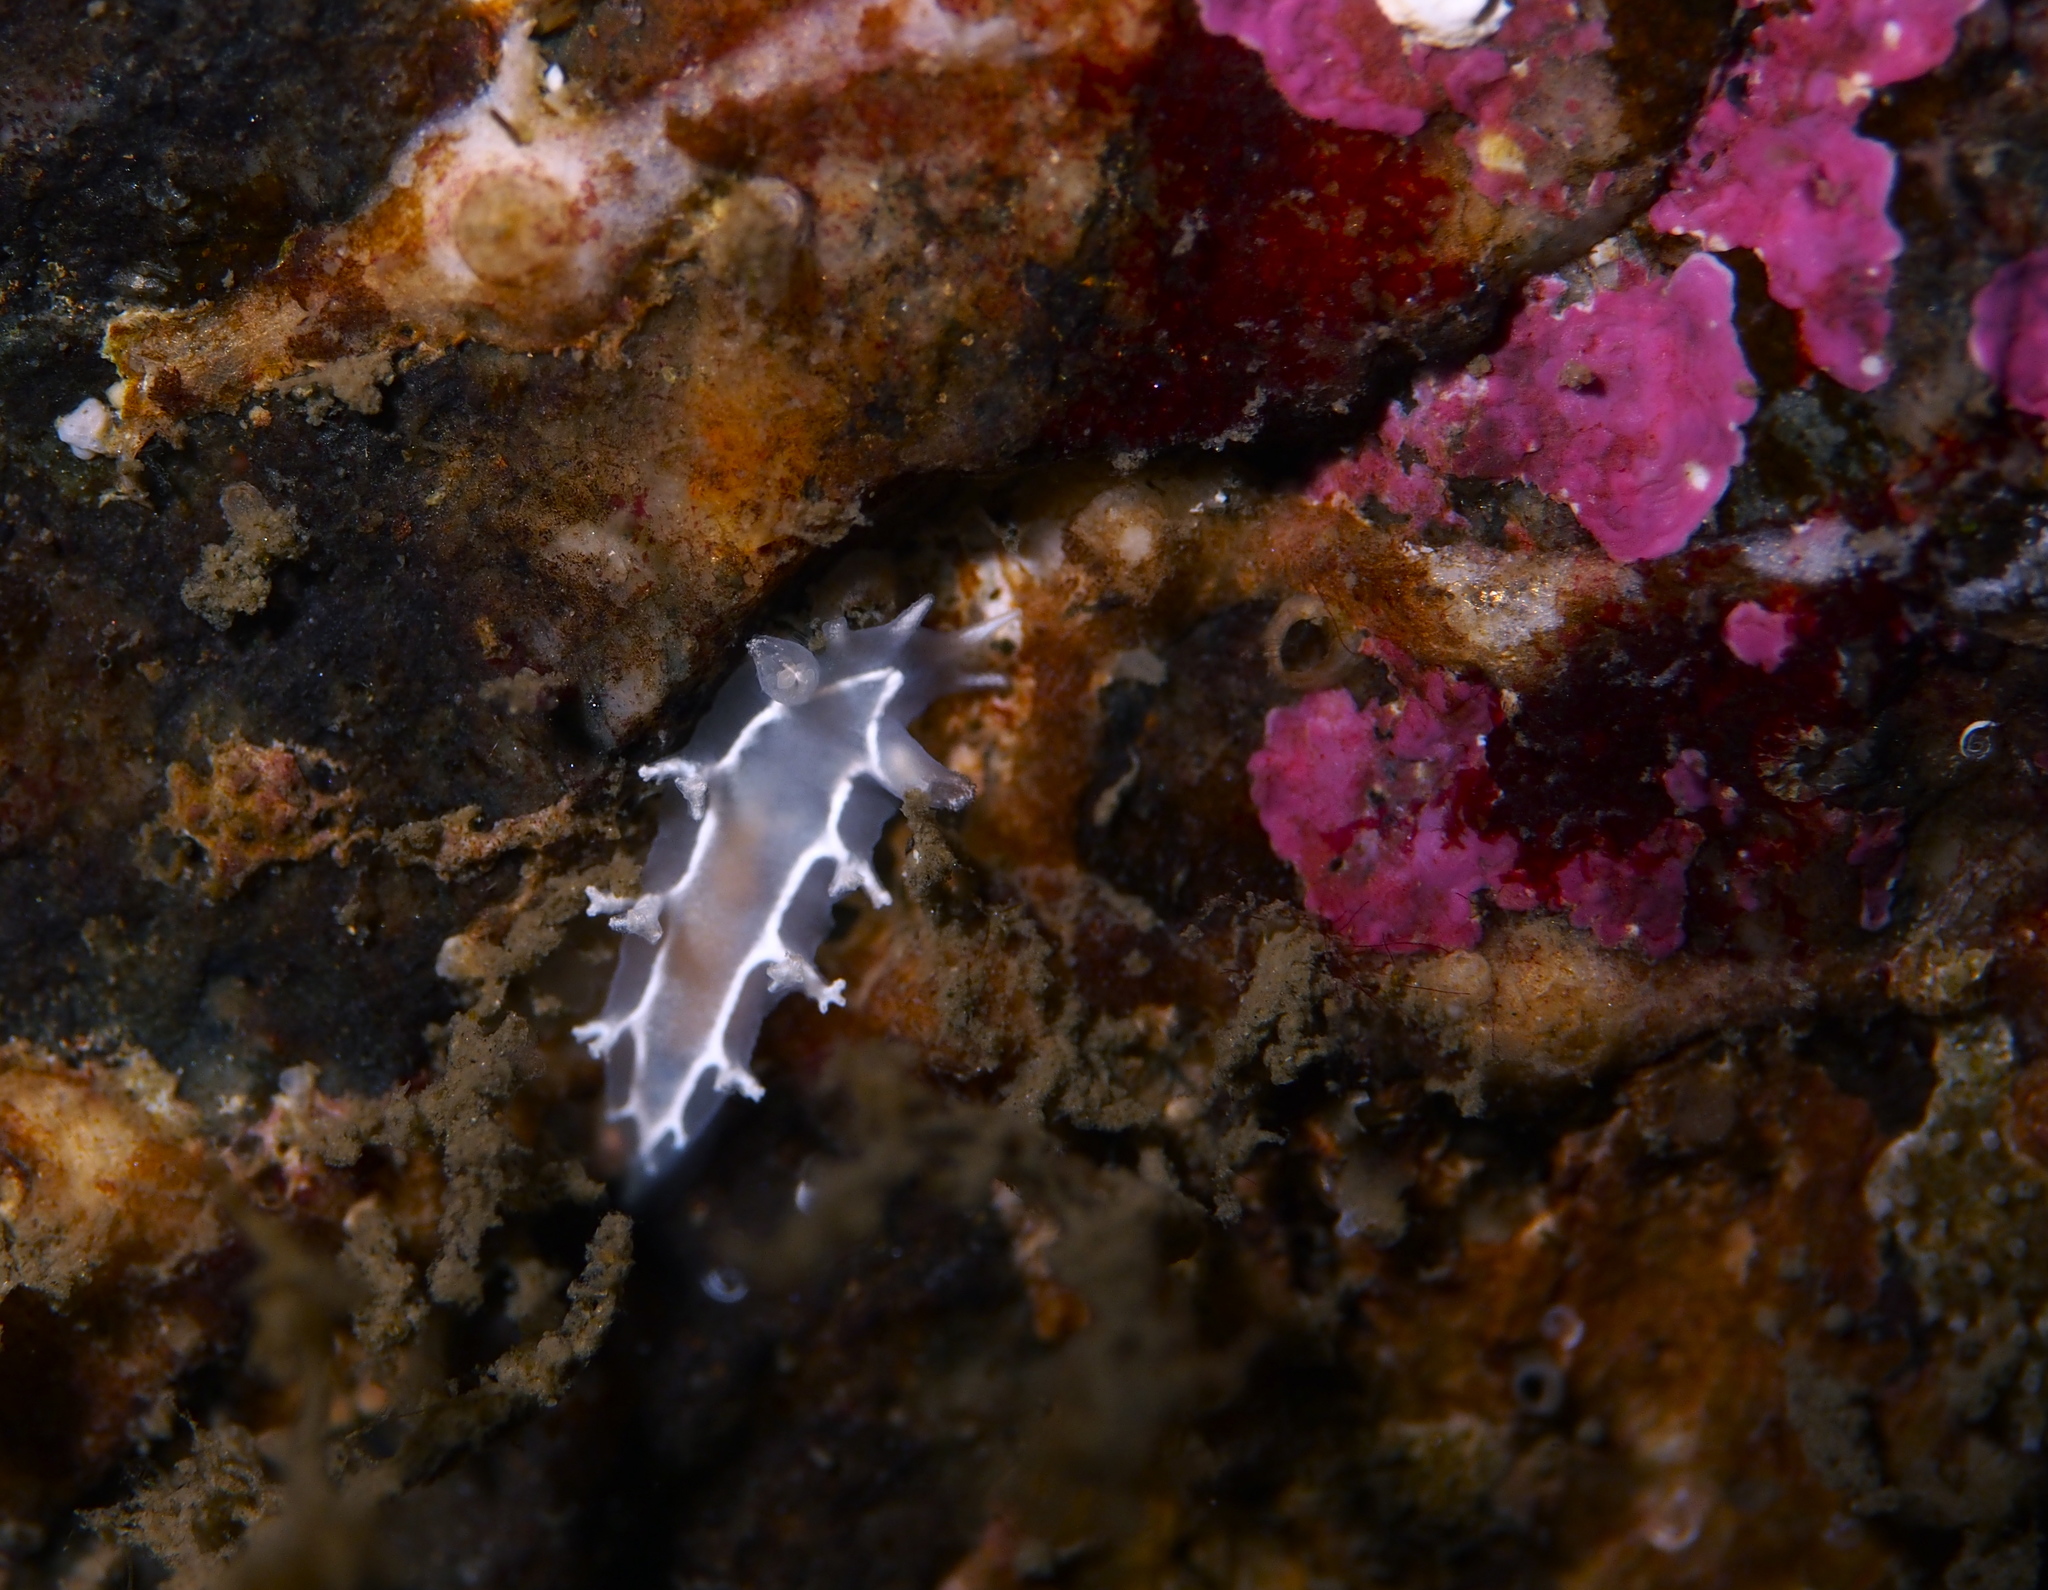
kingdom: Animalia
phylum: Mollusca
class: Gastropoda
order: Nudibranchia
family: Tritoniidae
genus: Duvaucelia
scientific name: Duvaucelia lineata
